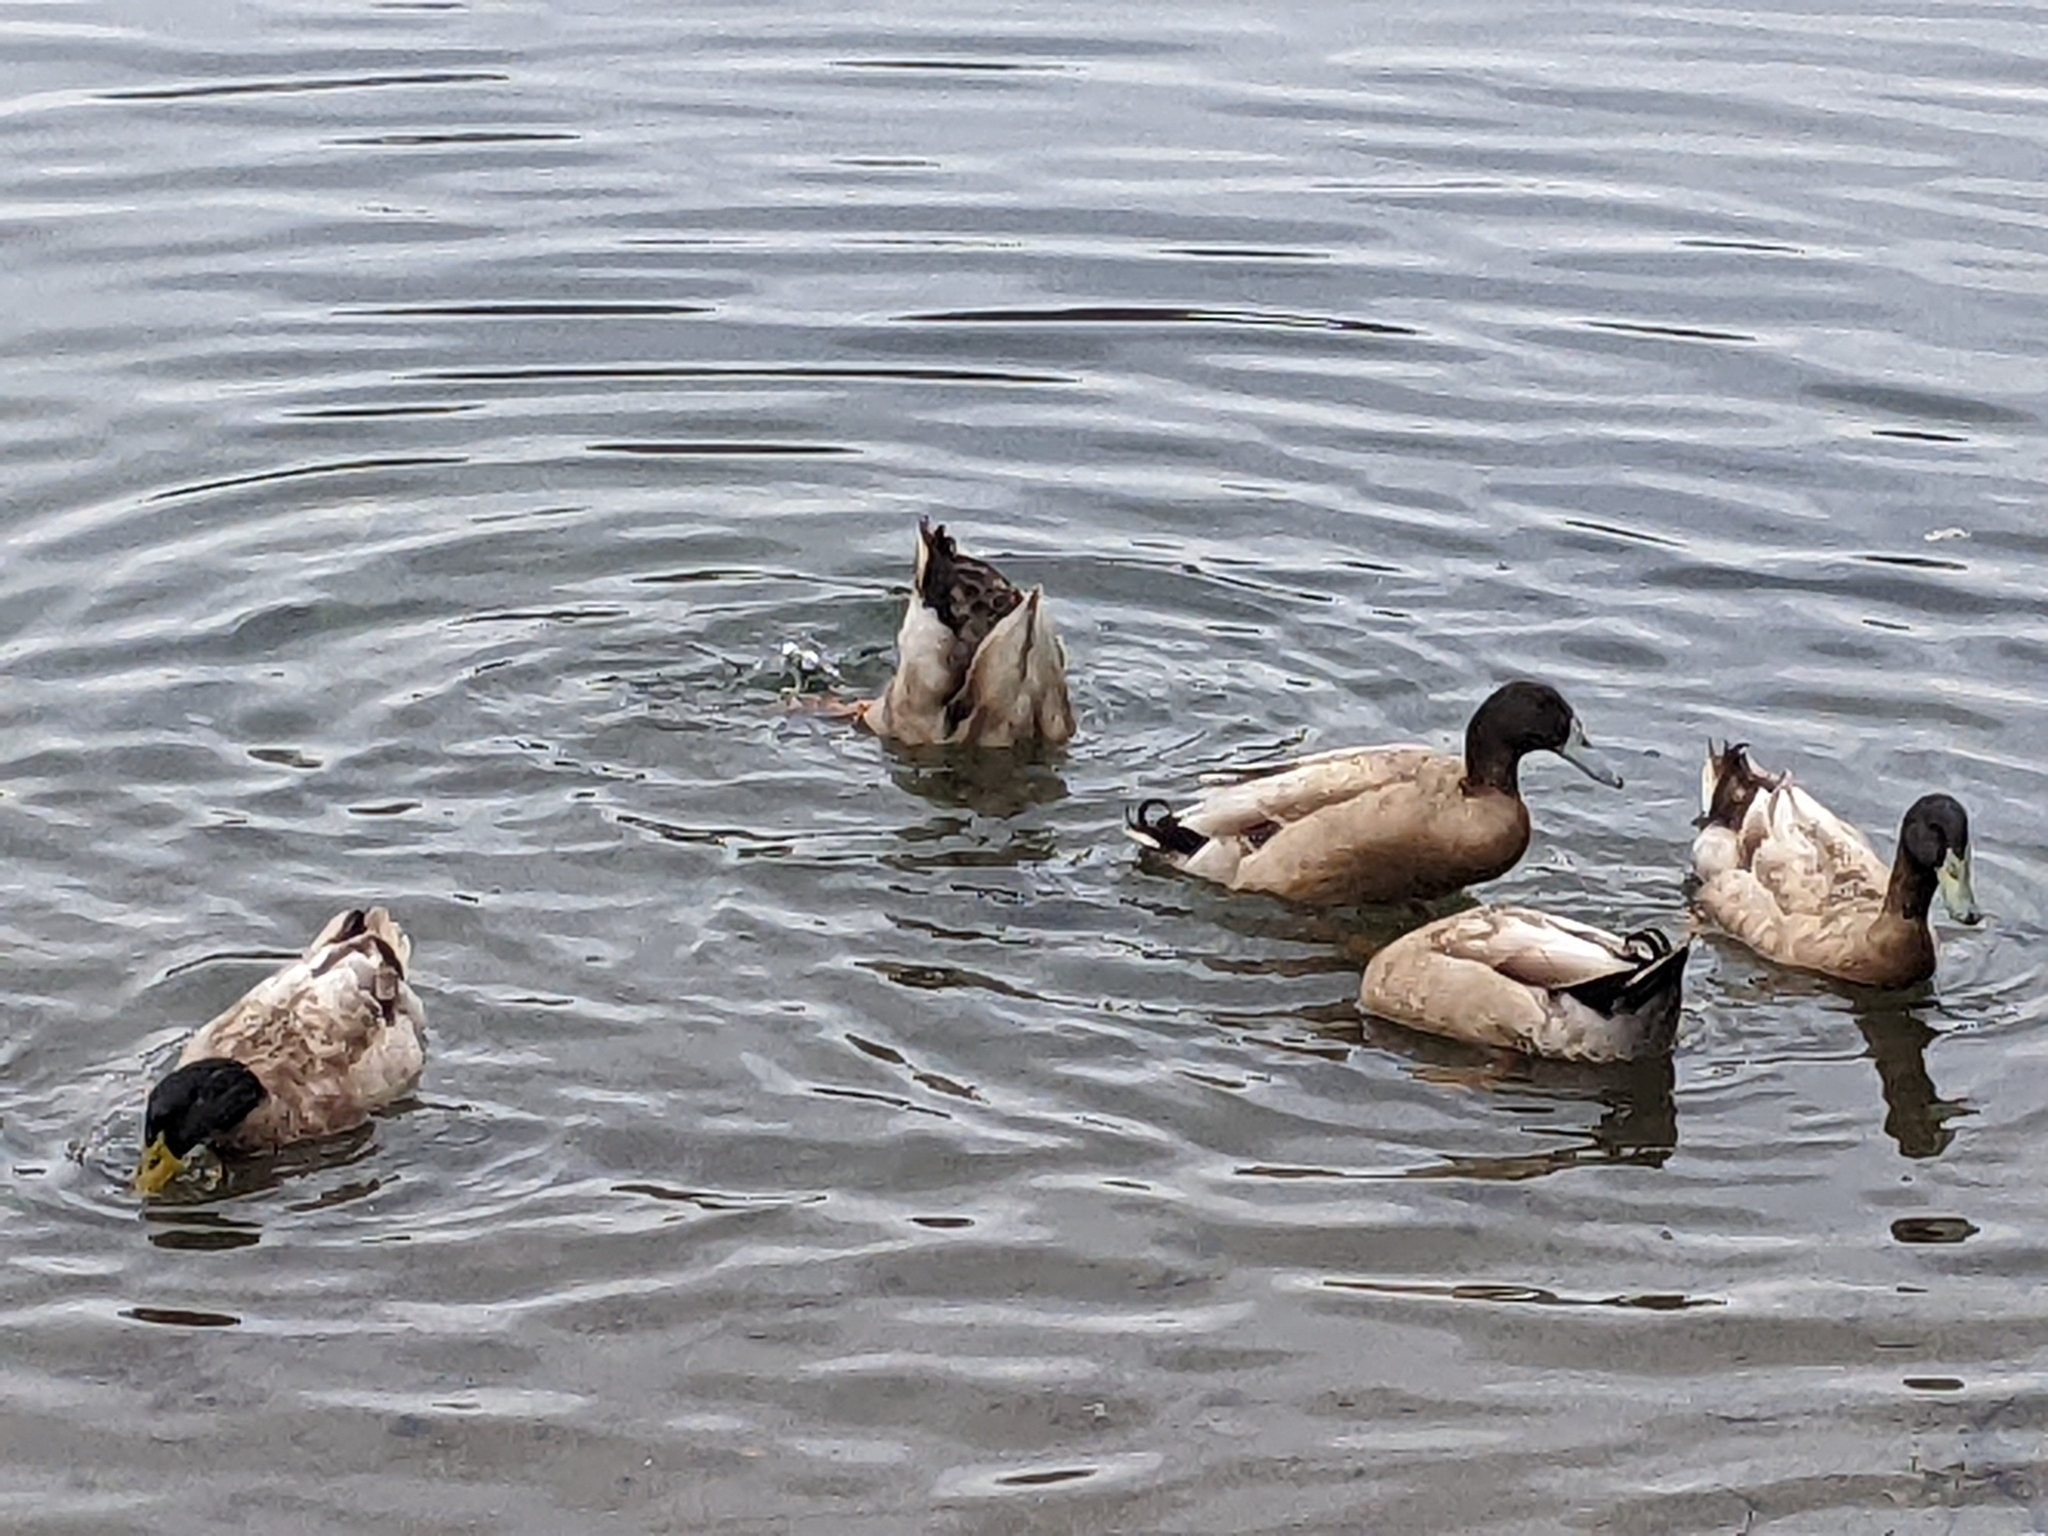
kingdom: Animalia
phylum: Chordata
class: Aves
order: Anseriformes
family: Anatidae
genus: Anas
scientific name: Anas platyrhynchos
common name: Mallard
